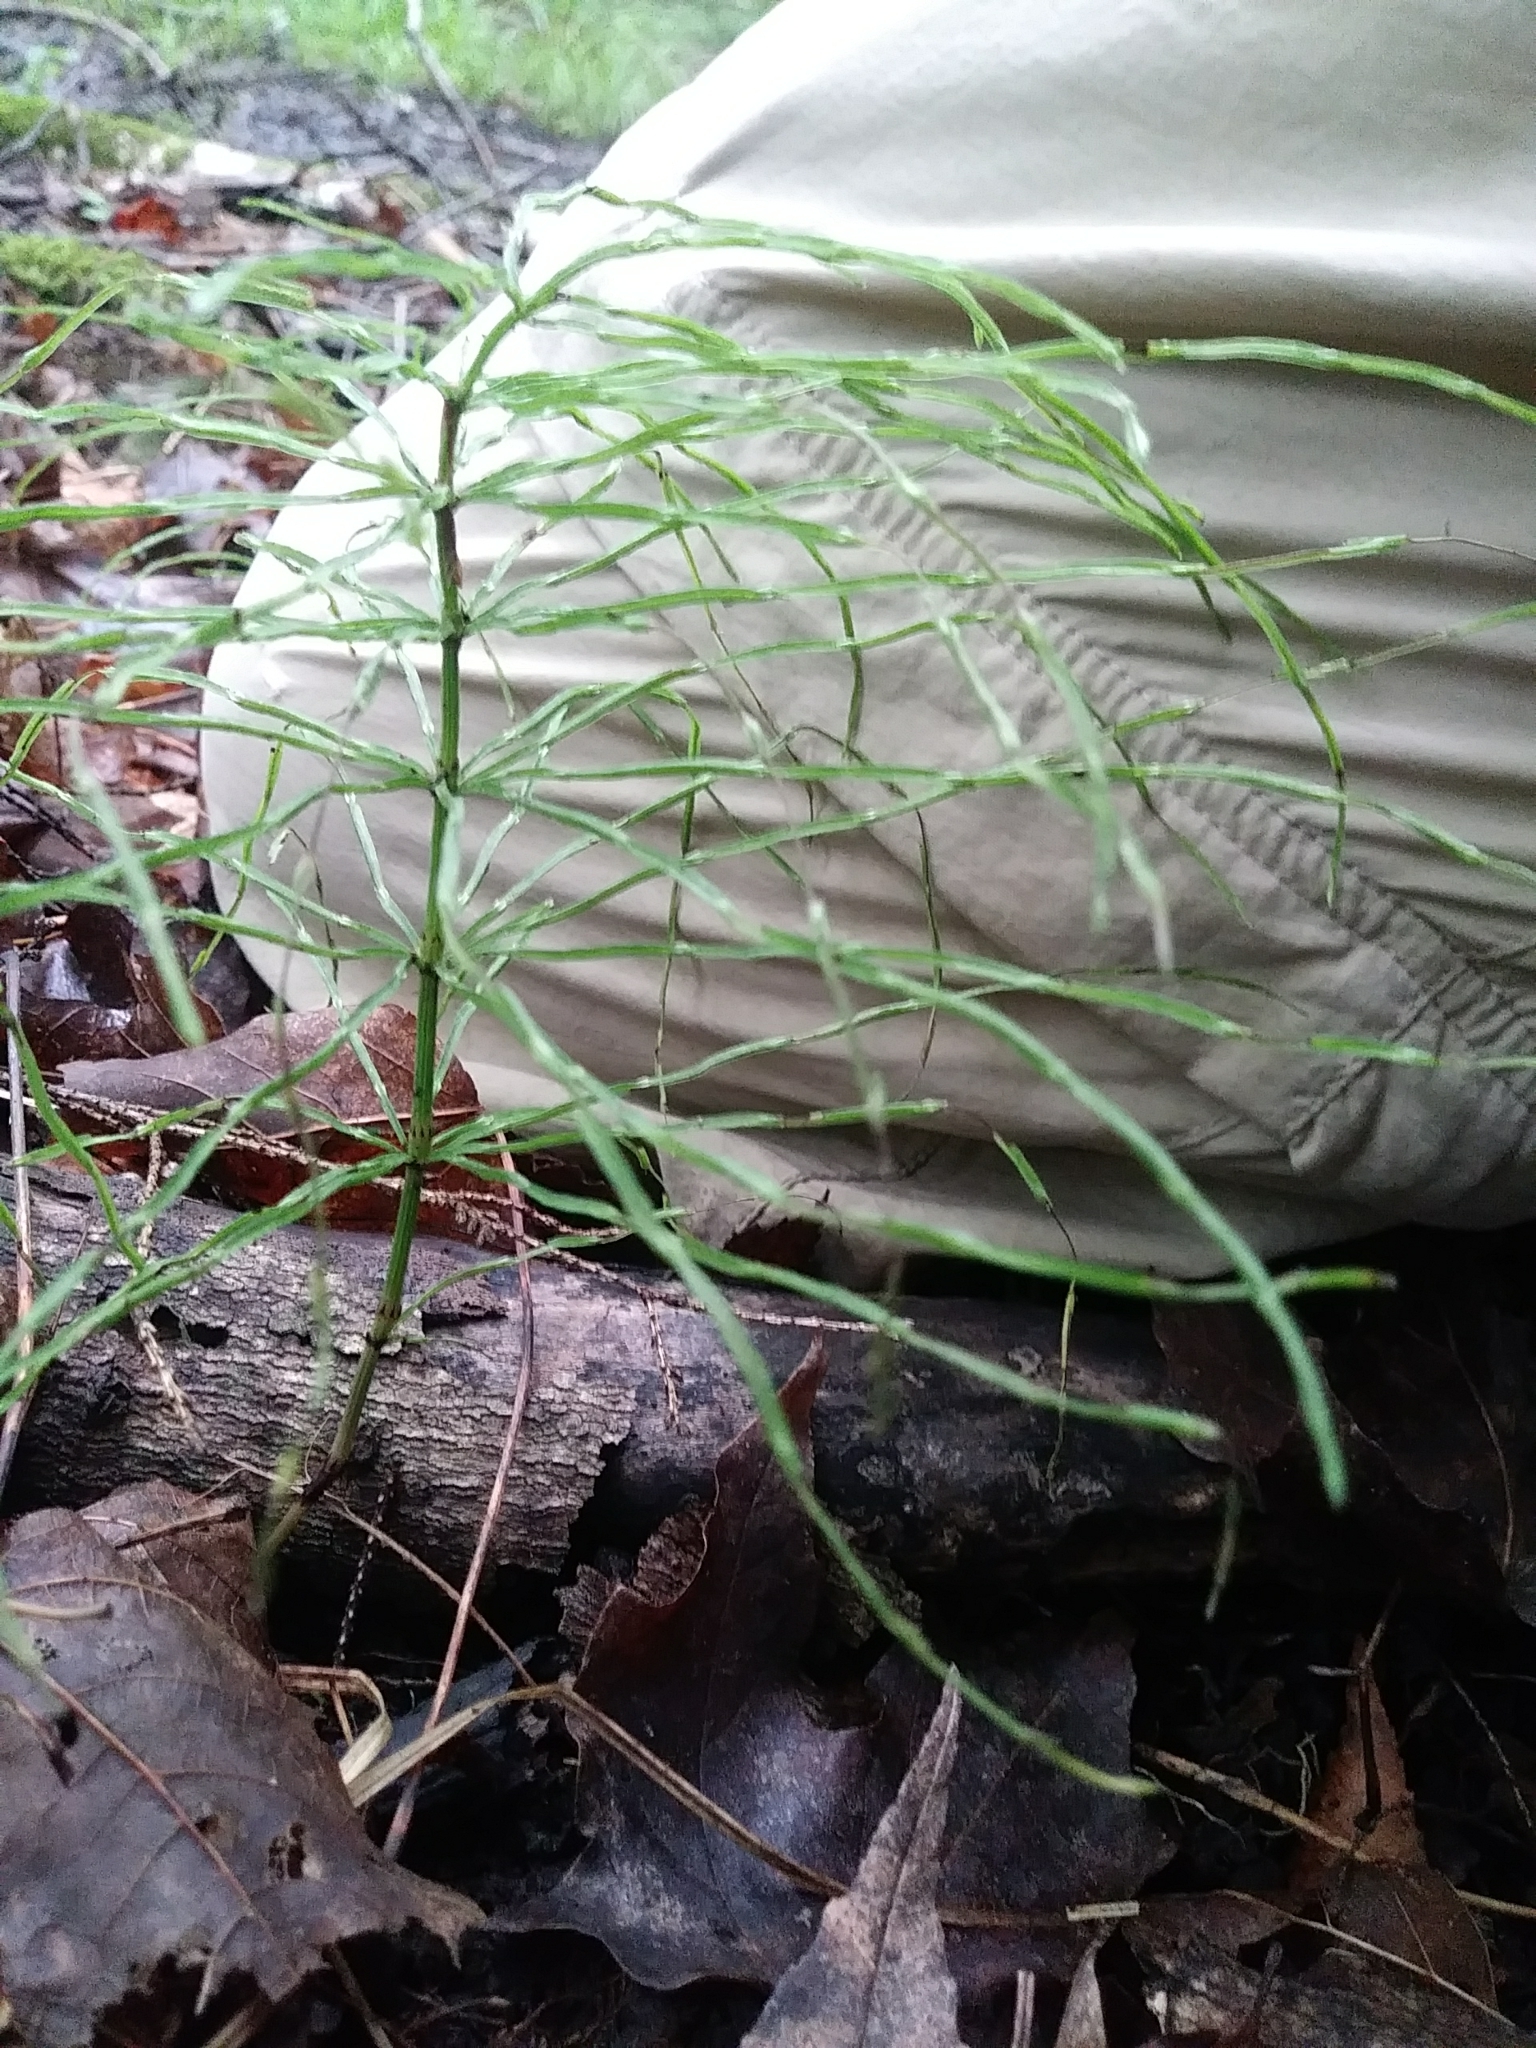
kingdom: Plantae
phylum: Tracheophyta
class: Polypodiopsida
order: Equisetales
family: Equisetaceae
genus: Equisetum
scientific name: Equisetum arvense
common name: Field horsetail
